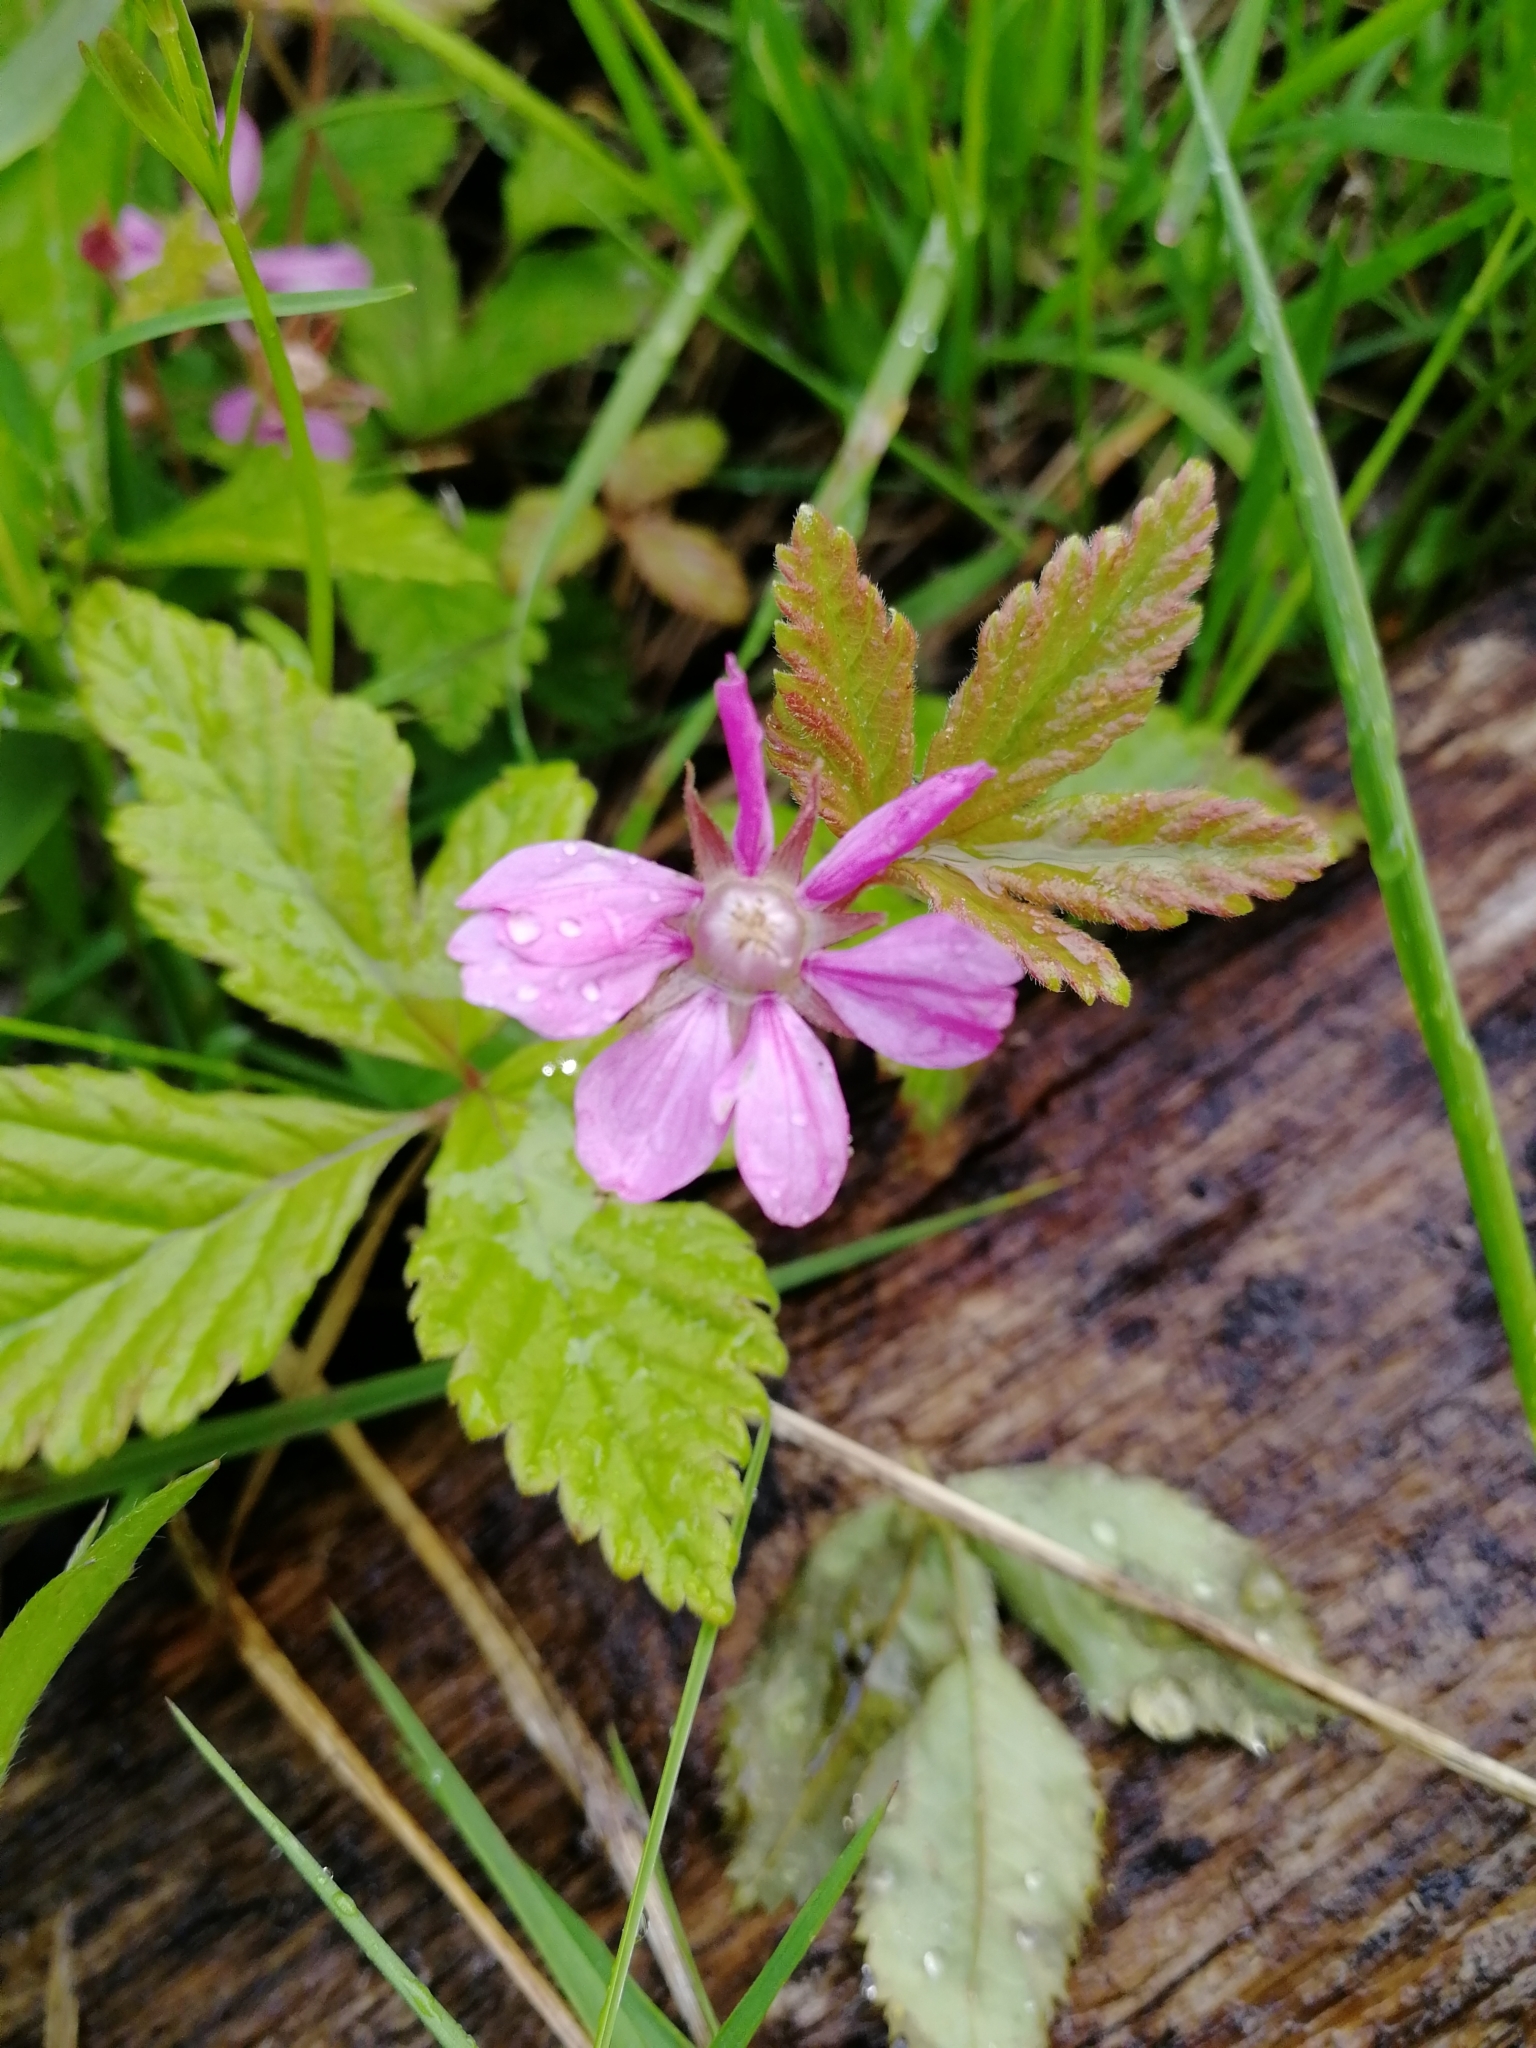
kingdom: Plantae
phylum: Tracheophyta
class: Magnoliopsida
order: Rosales
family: Rosaceae
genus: Rubus
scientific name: Rubus arcticus
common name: Arctic bramble
